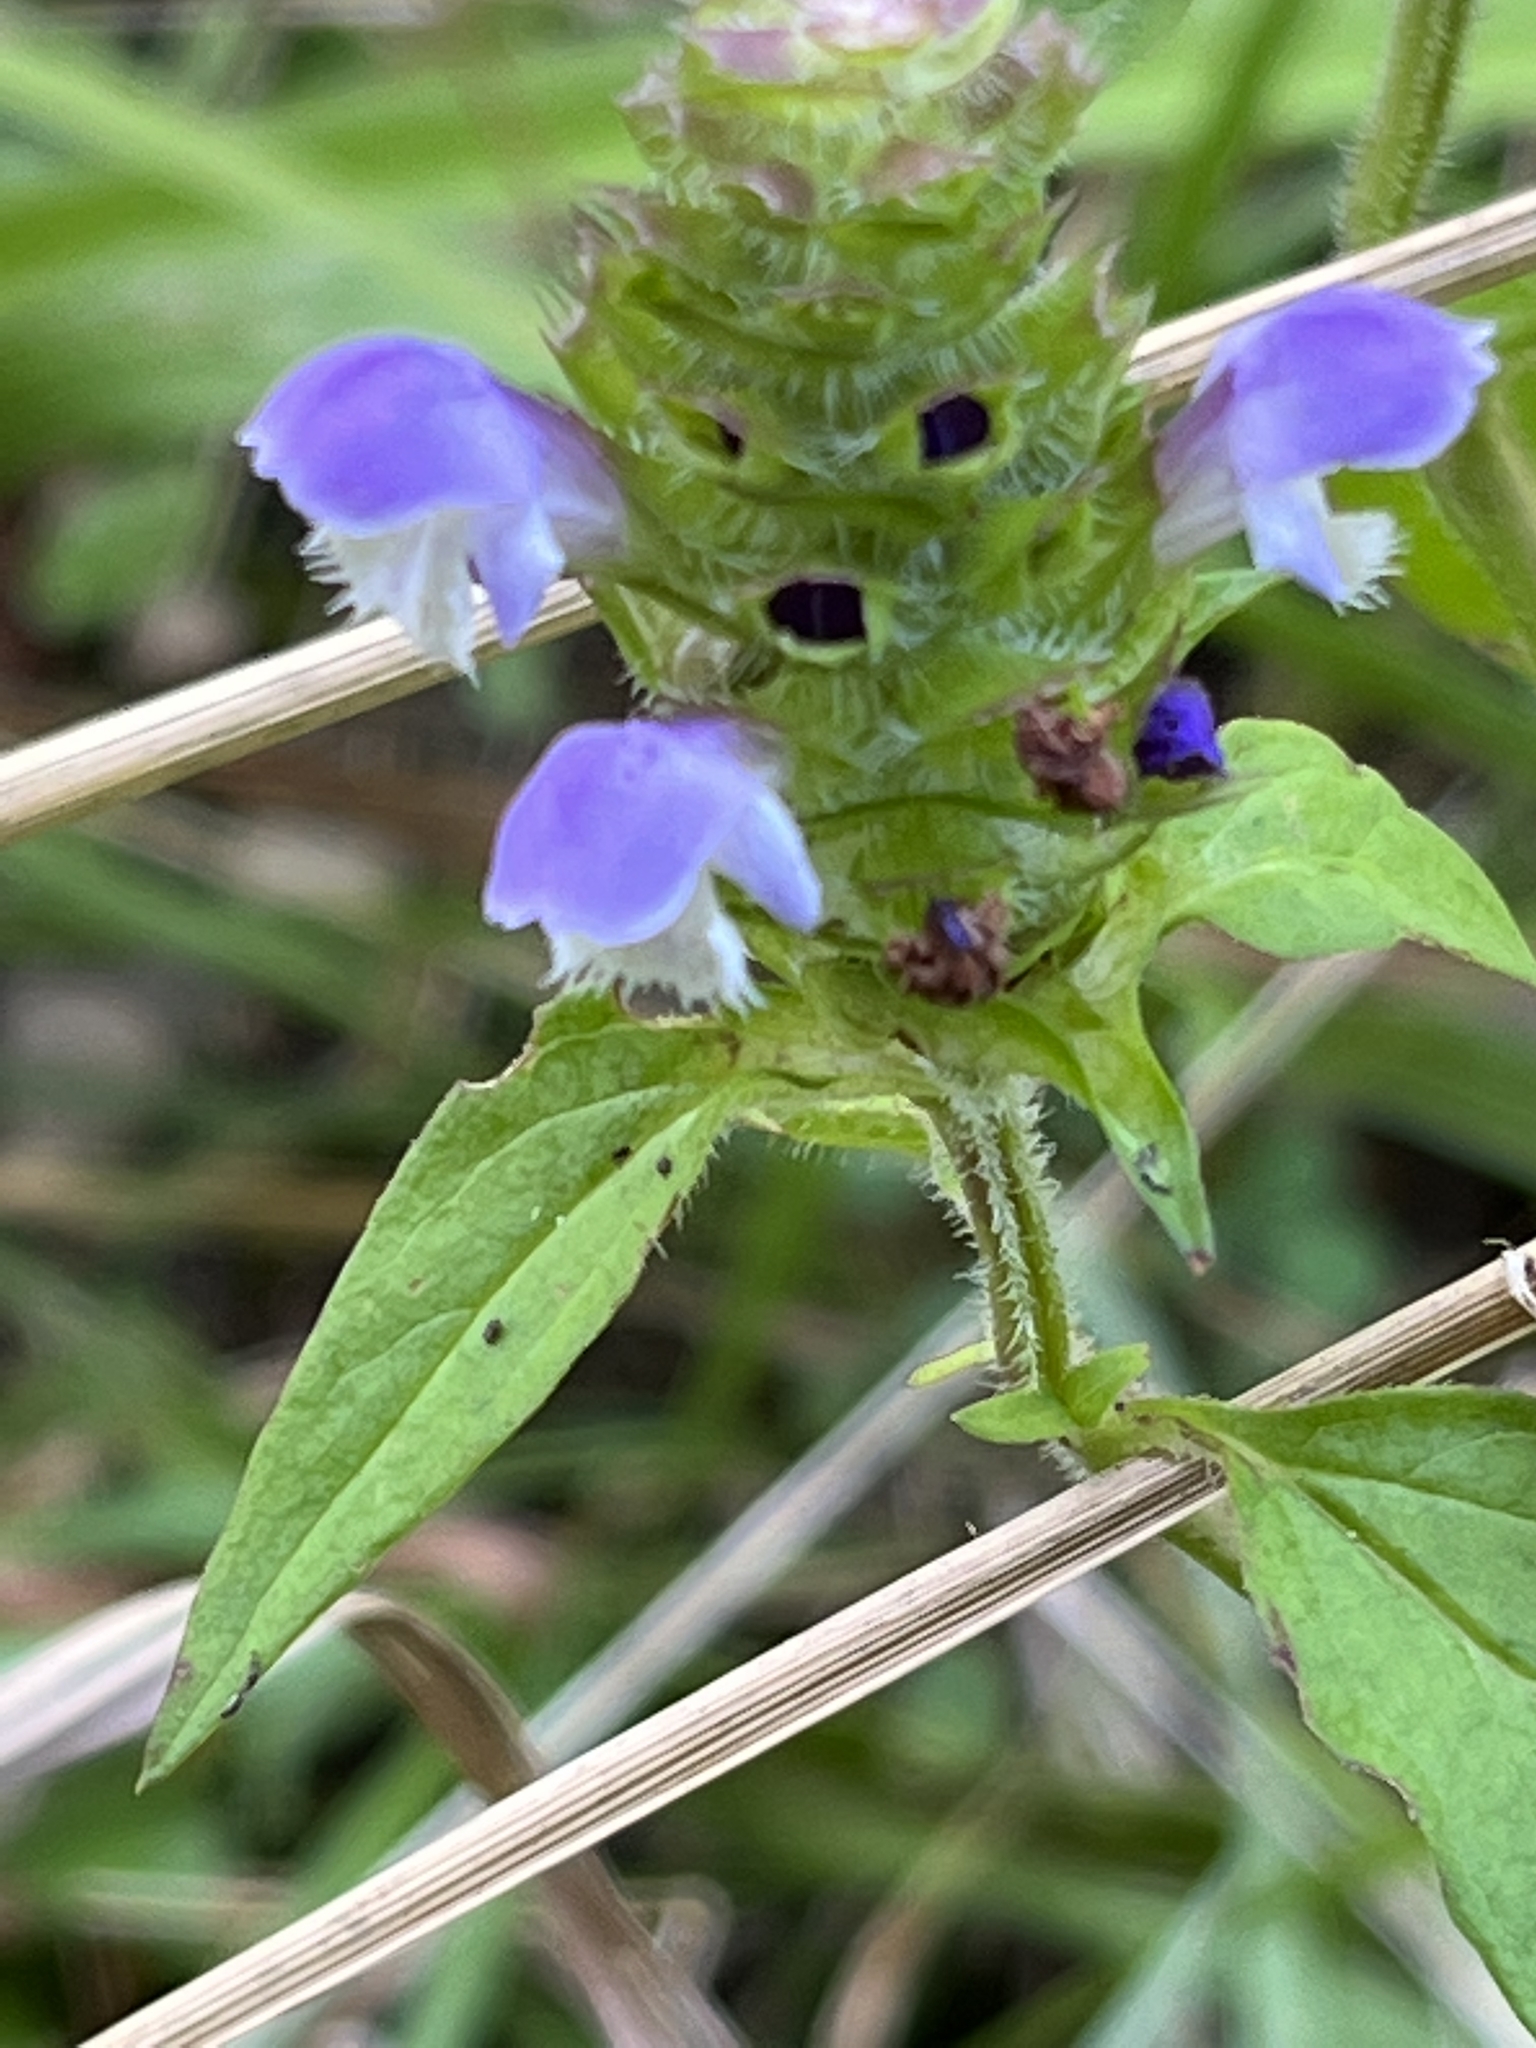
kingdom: Plantae
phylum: Tracheophyta
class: Magnoliopsida
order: Lamiales
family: Lamiaceae
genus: Prunella
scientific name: Prunella vulgaris
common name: Heal-all
